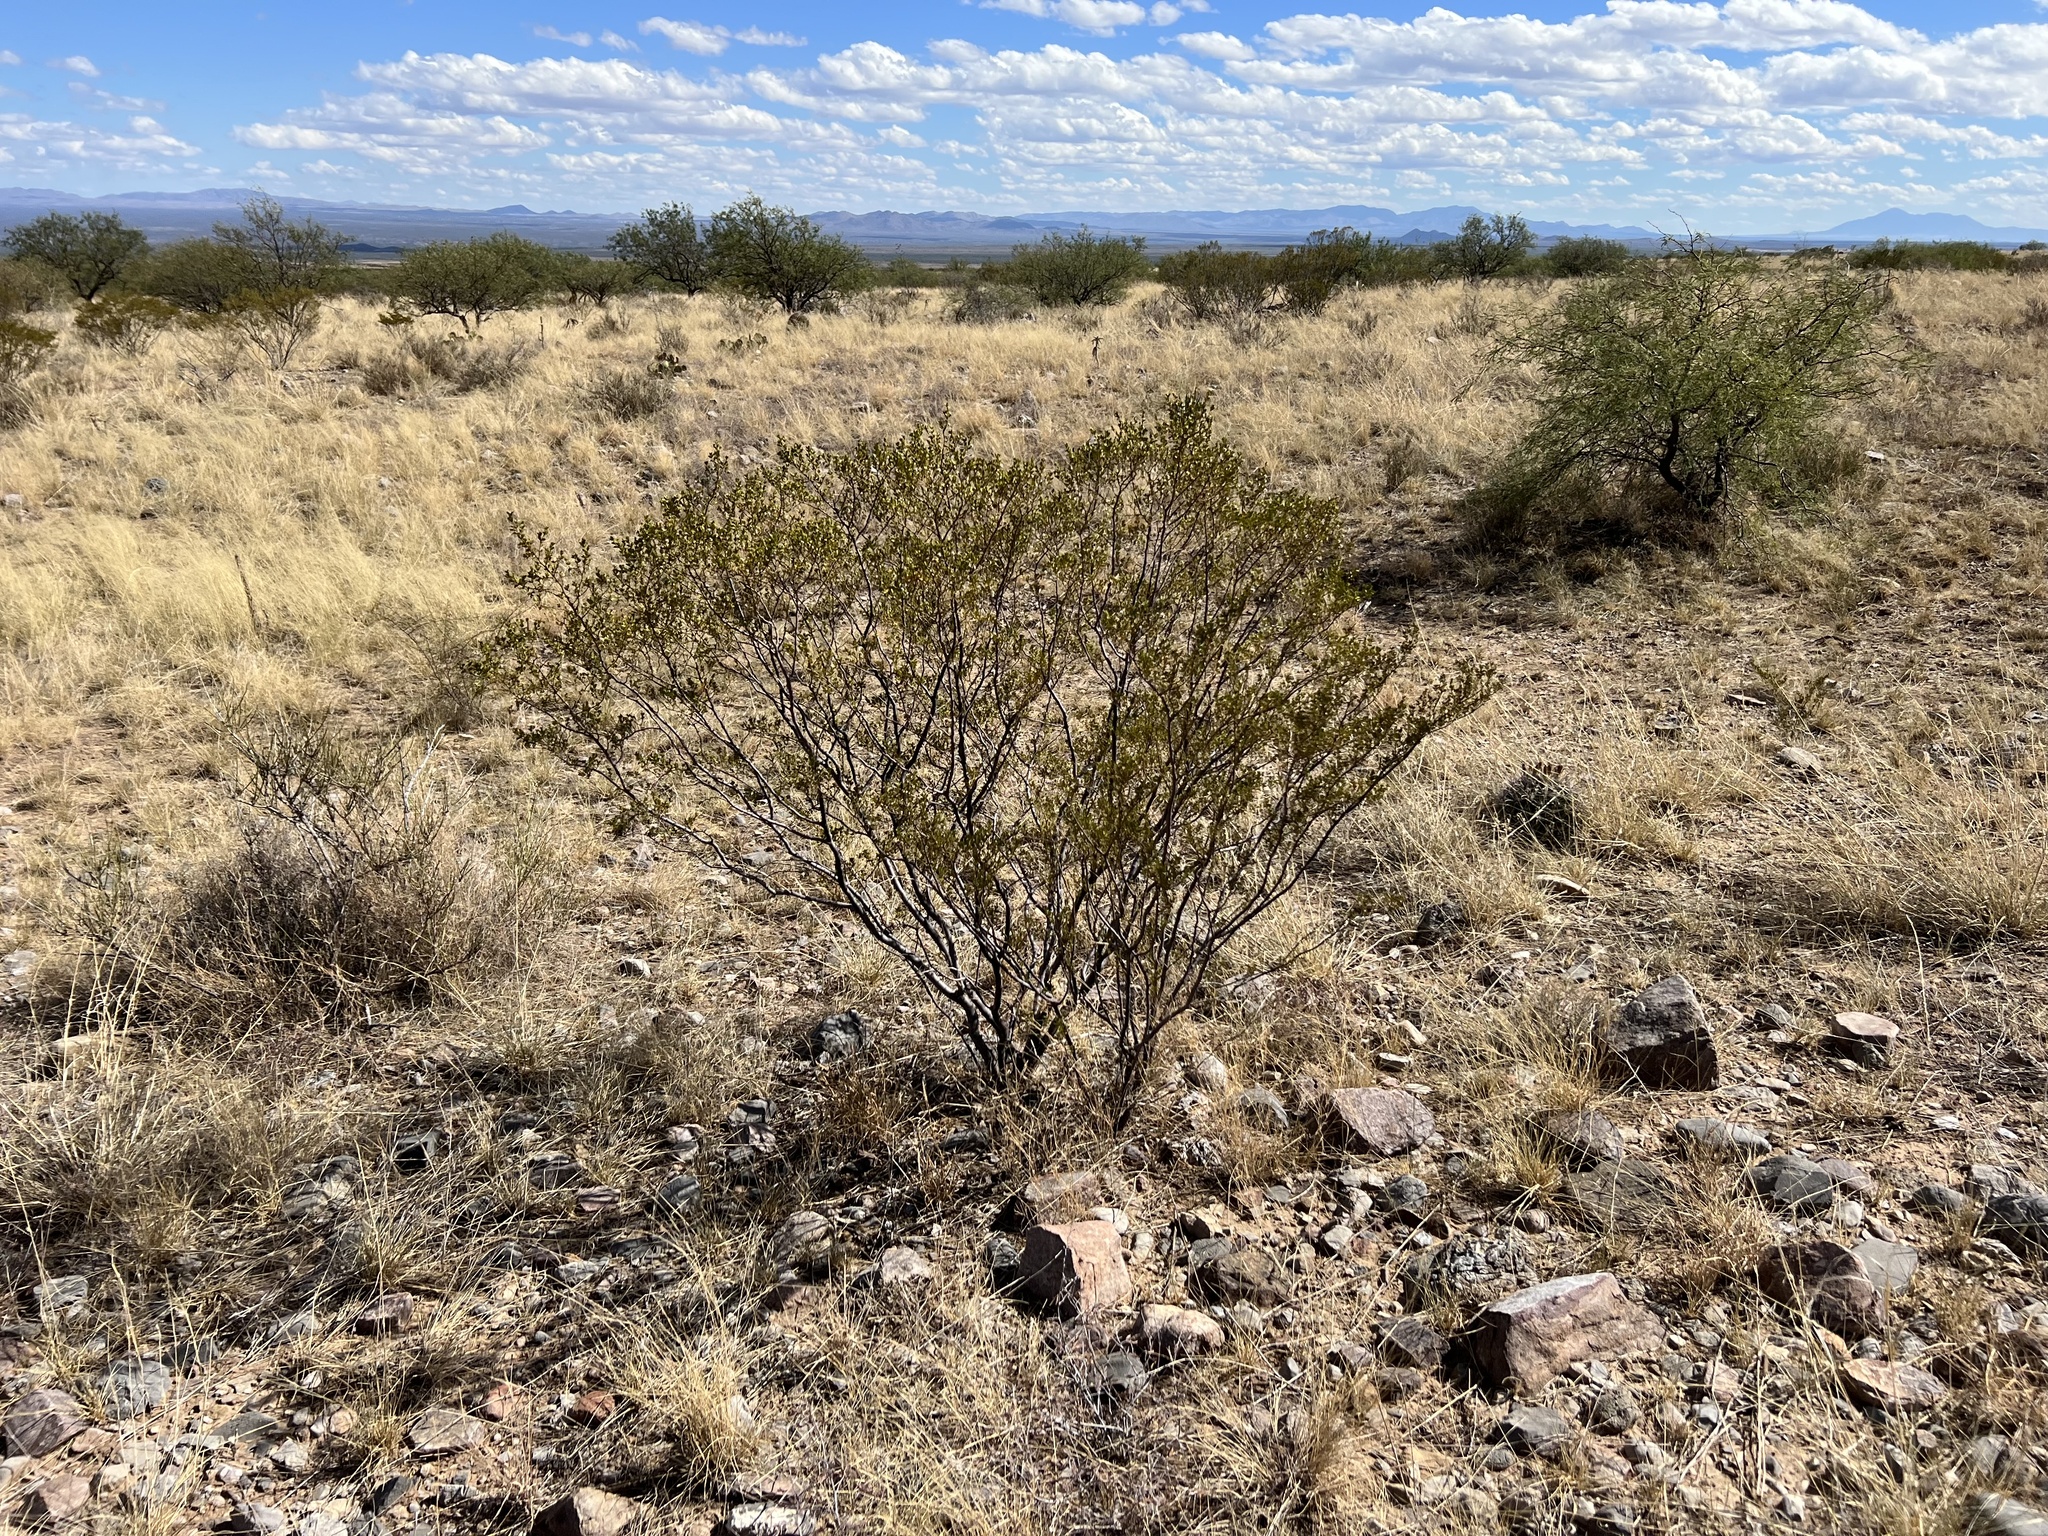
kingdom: Plantae
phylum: Tracheophyta
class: Magnoliopsida
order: Zygophyllales
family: Zygophyllaceae
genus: Larrea
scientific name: Larrea tridentata
